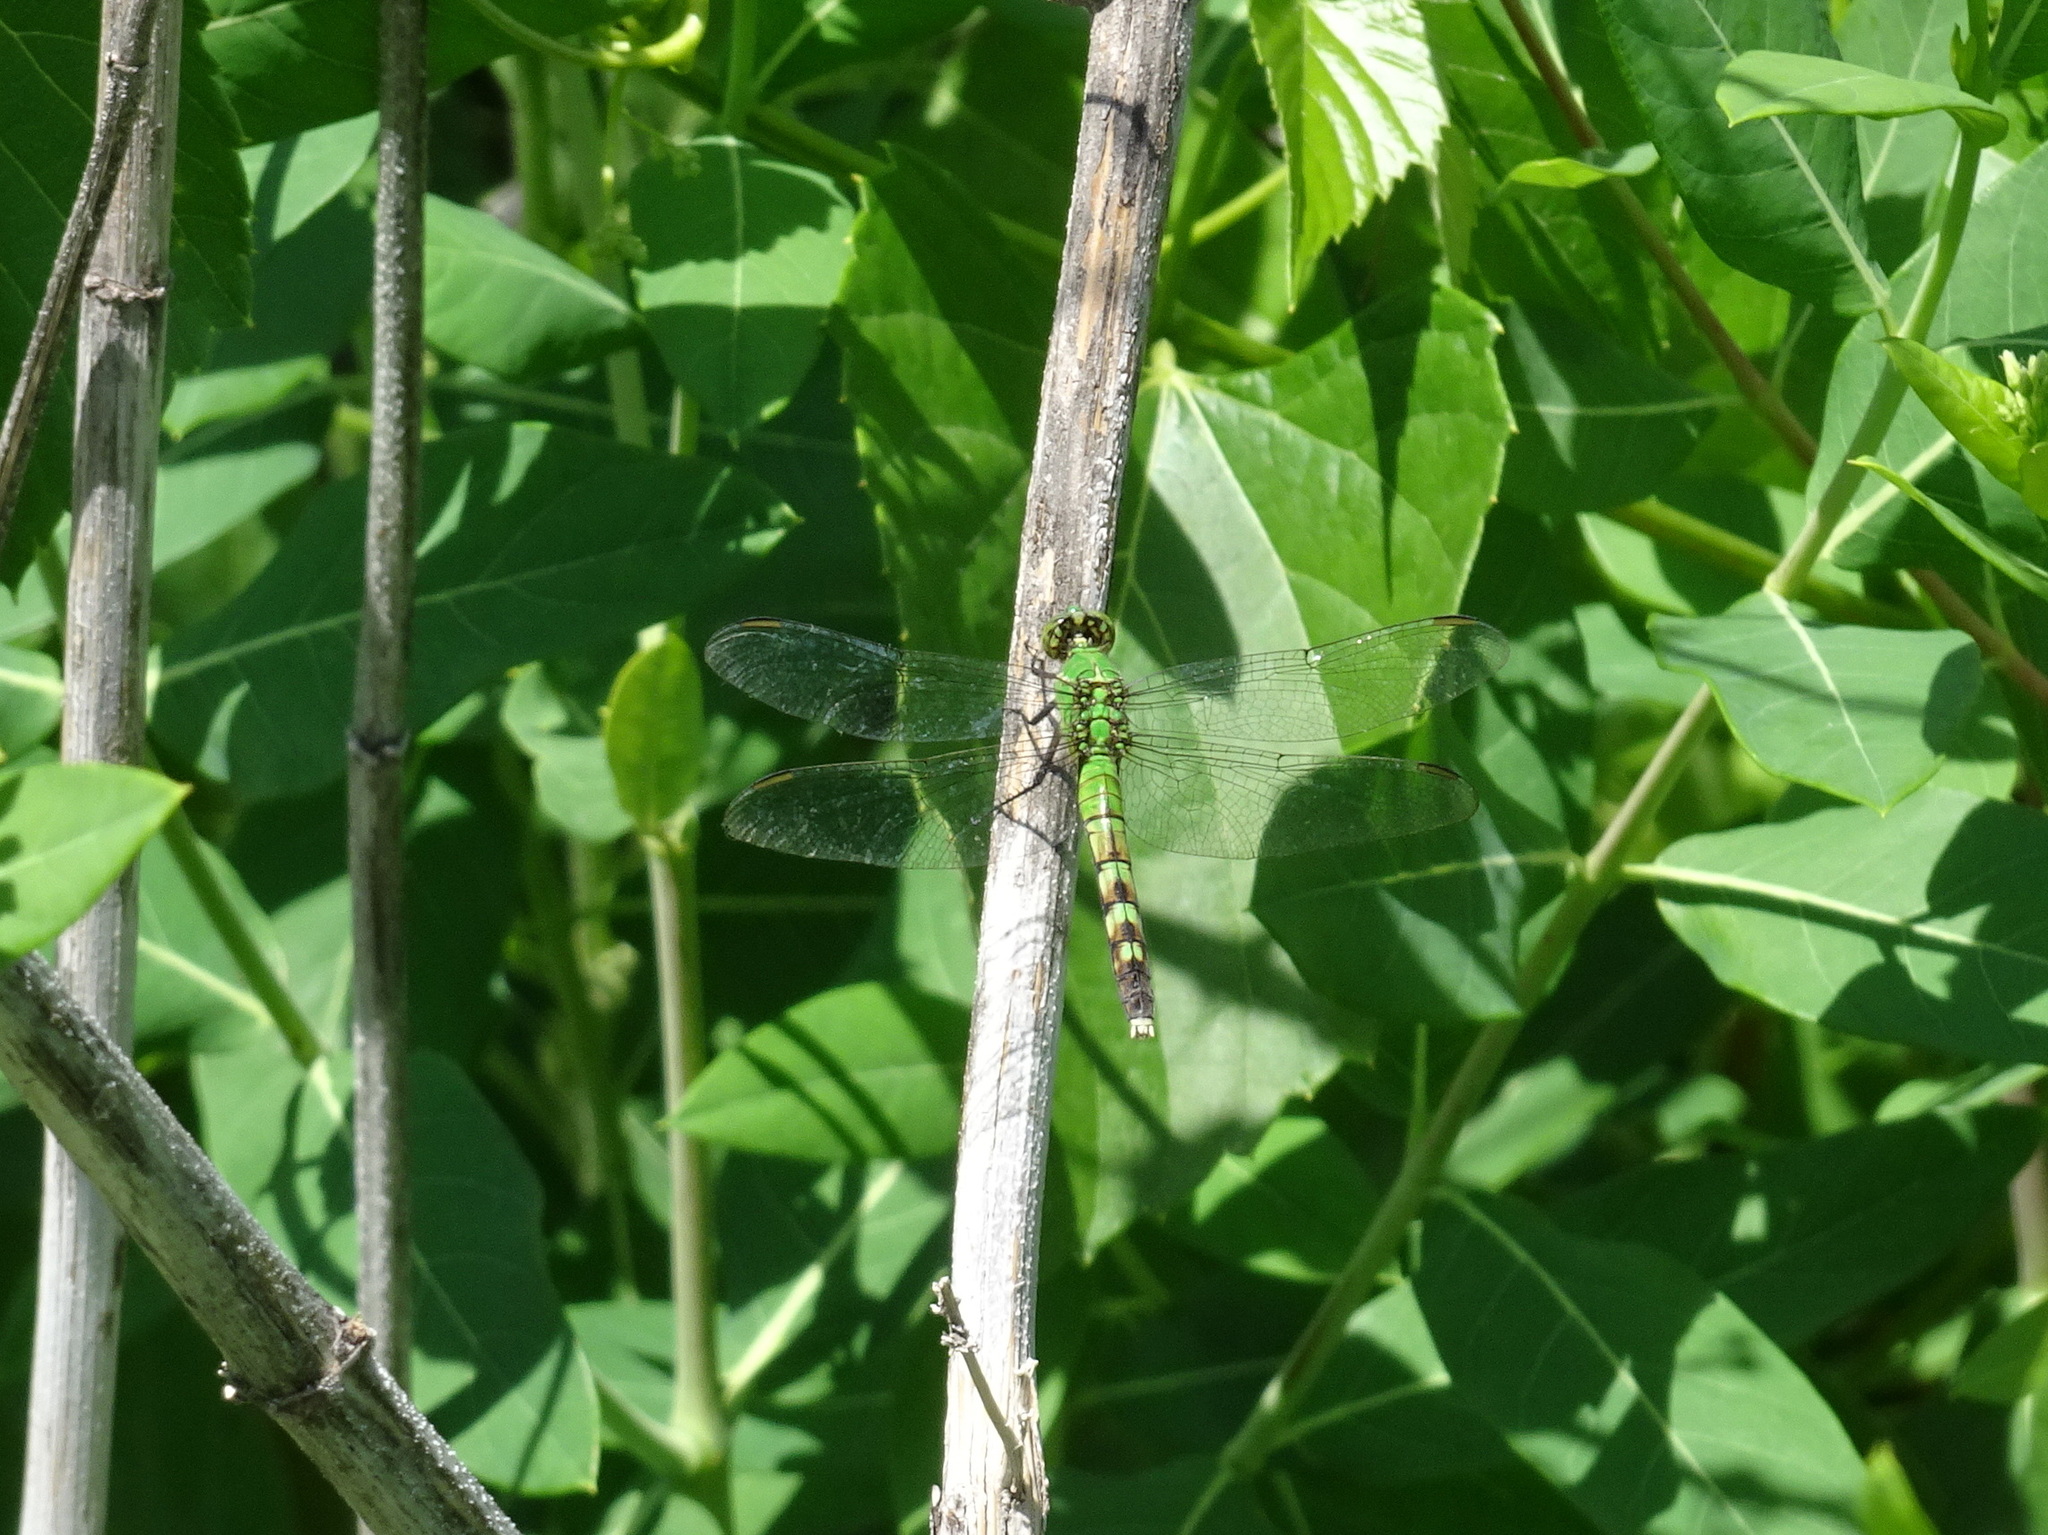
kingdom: Animalia
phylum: Arthropoda
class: Insecta
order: Odonata
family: Libellulidae
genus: Erythemis
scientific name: Erythemis simplicicollis
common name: Eastern pondhawk
